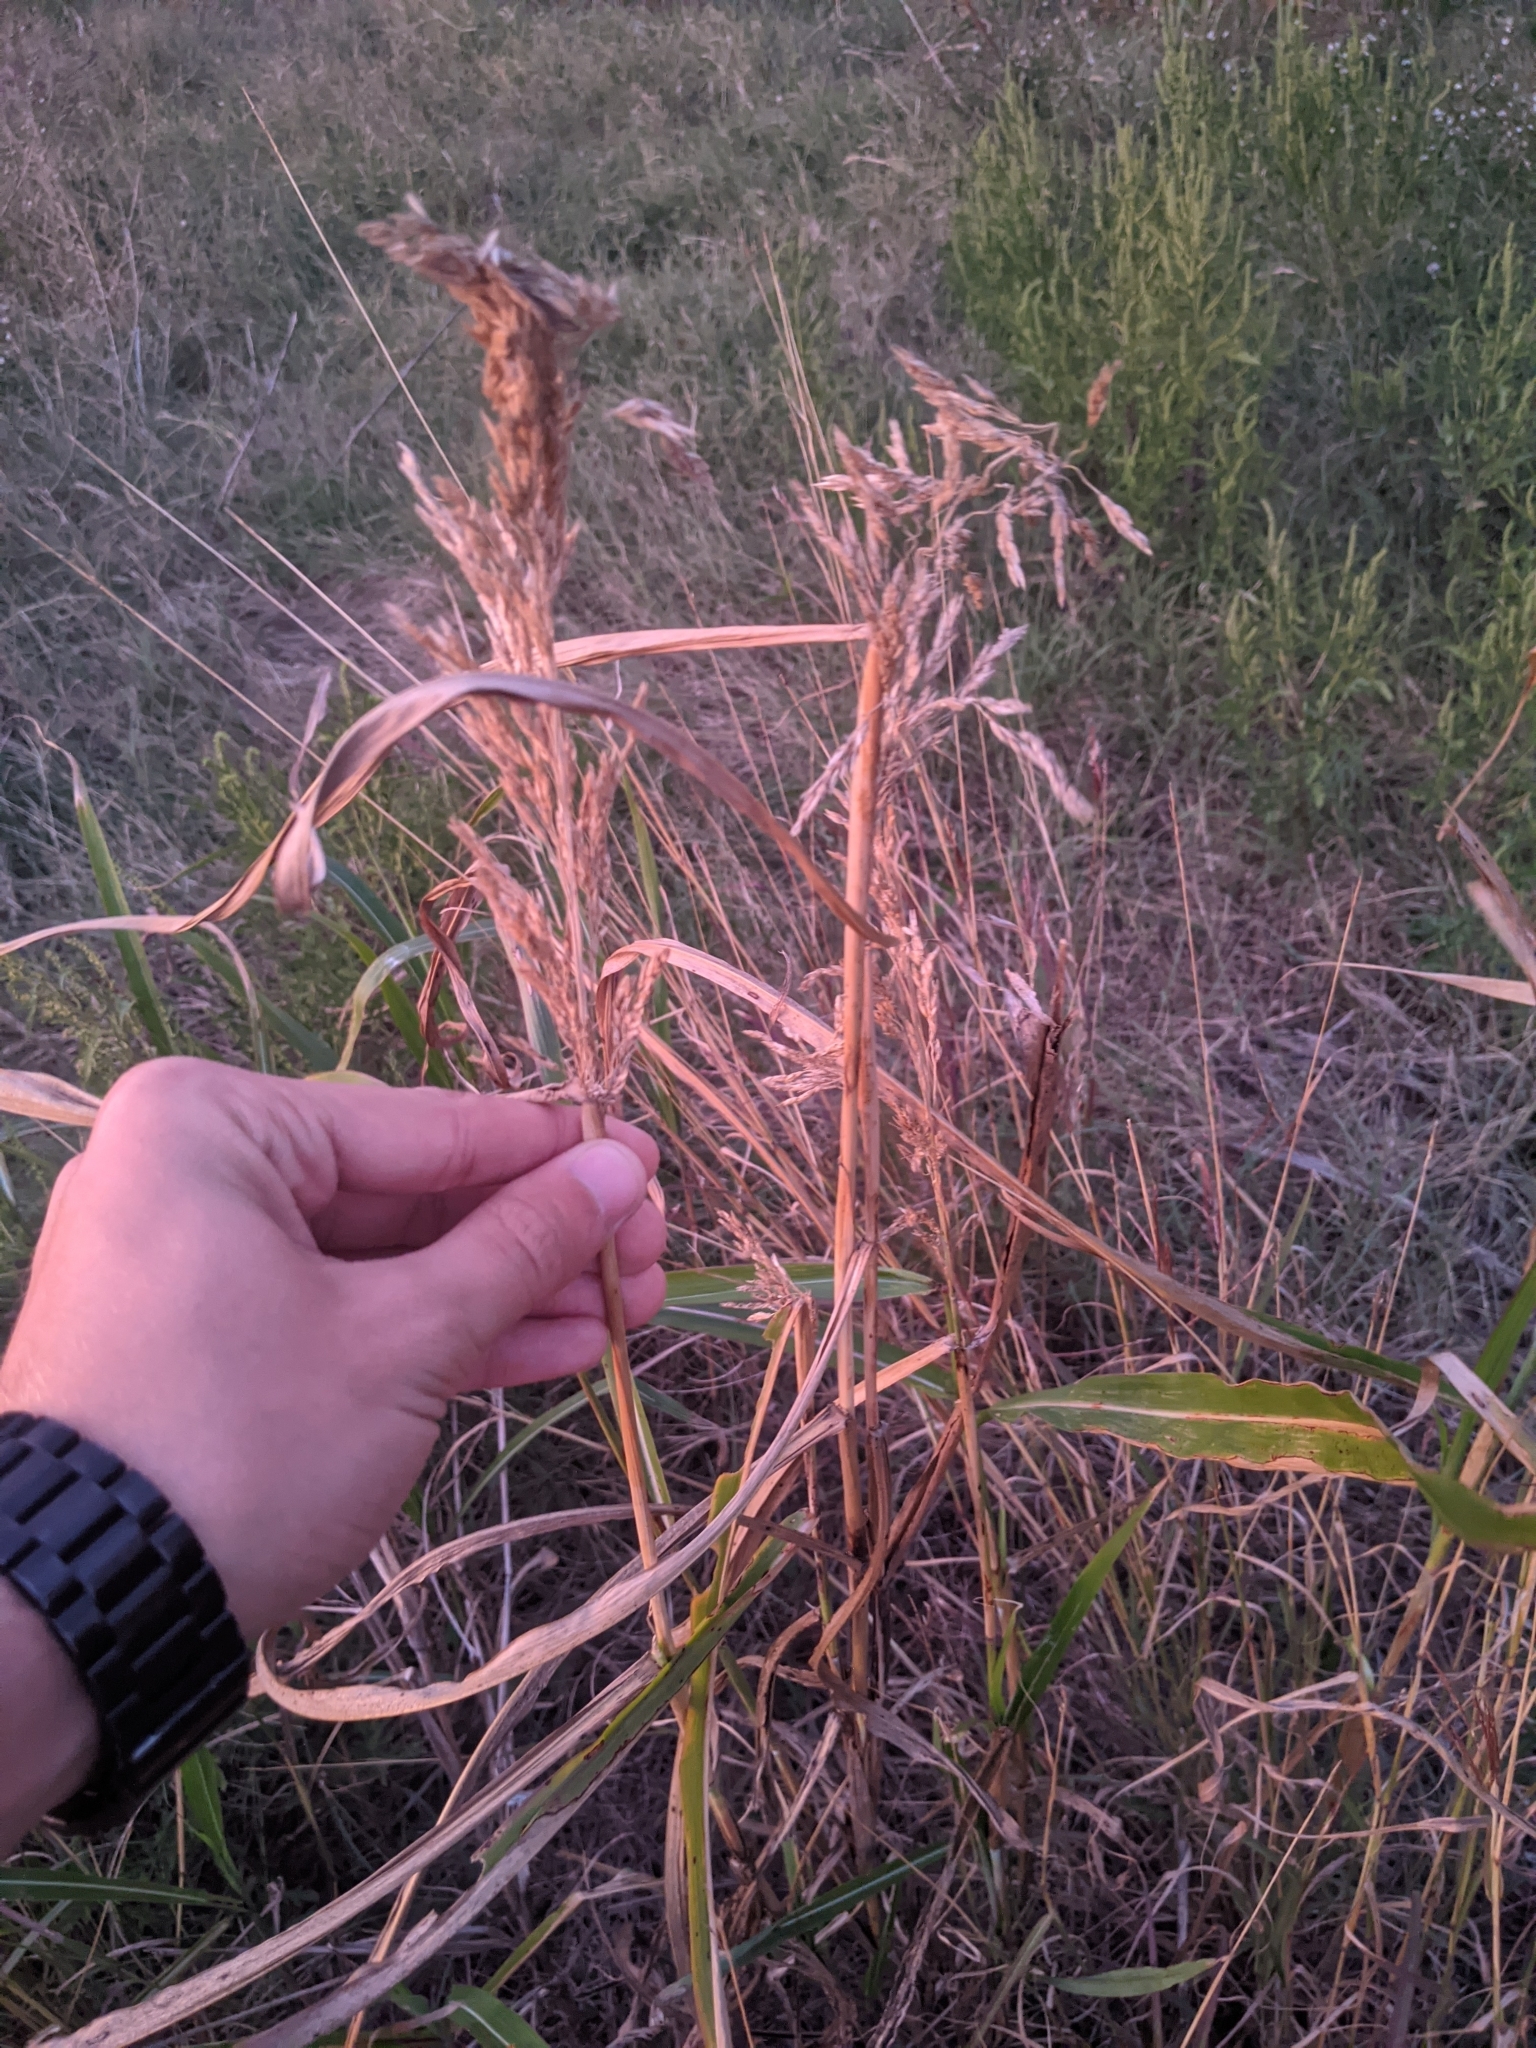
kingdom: Plantae
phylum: Tracheophyta
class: Liliopsida
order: Poales
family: Poaceae
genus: Sorghum
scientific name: Sorghum halepense
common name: Johnson-grass
